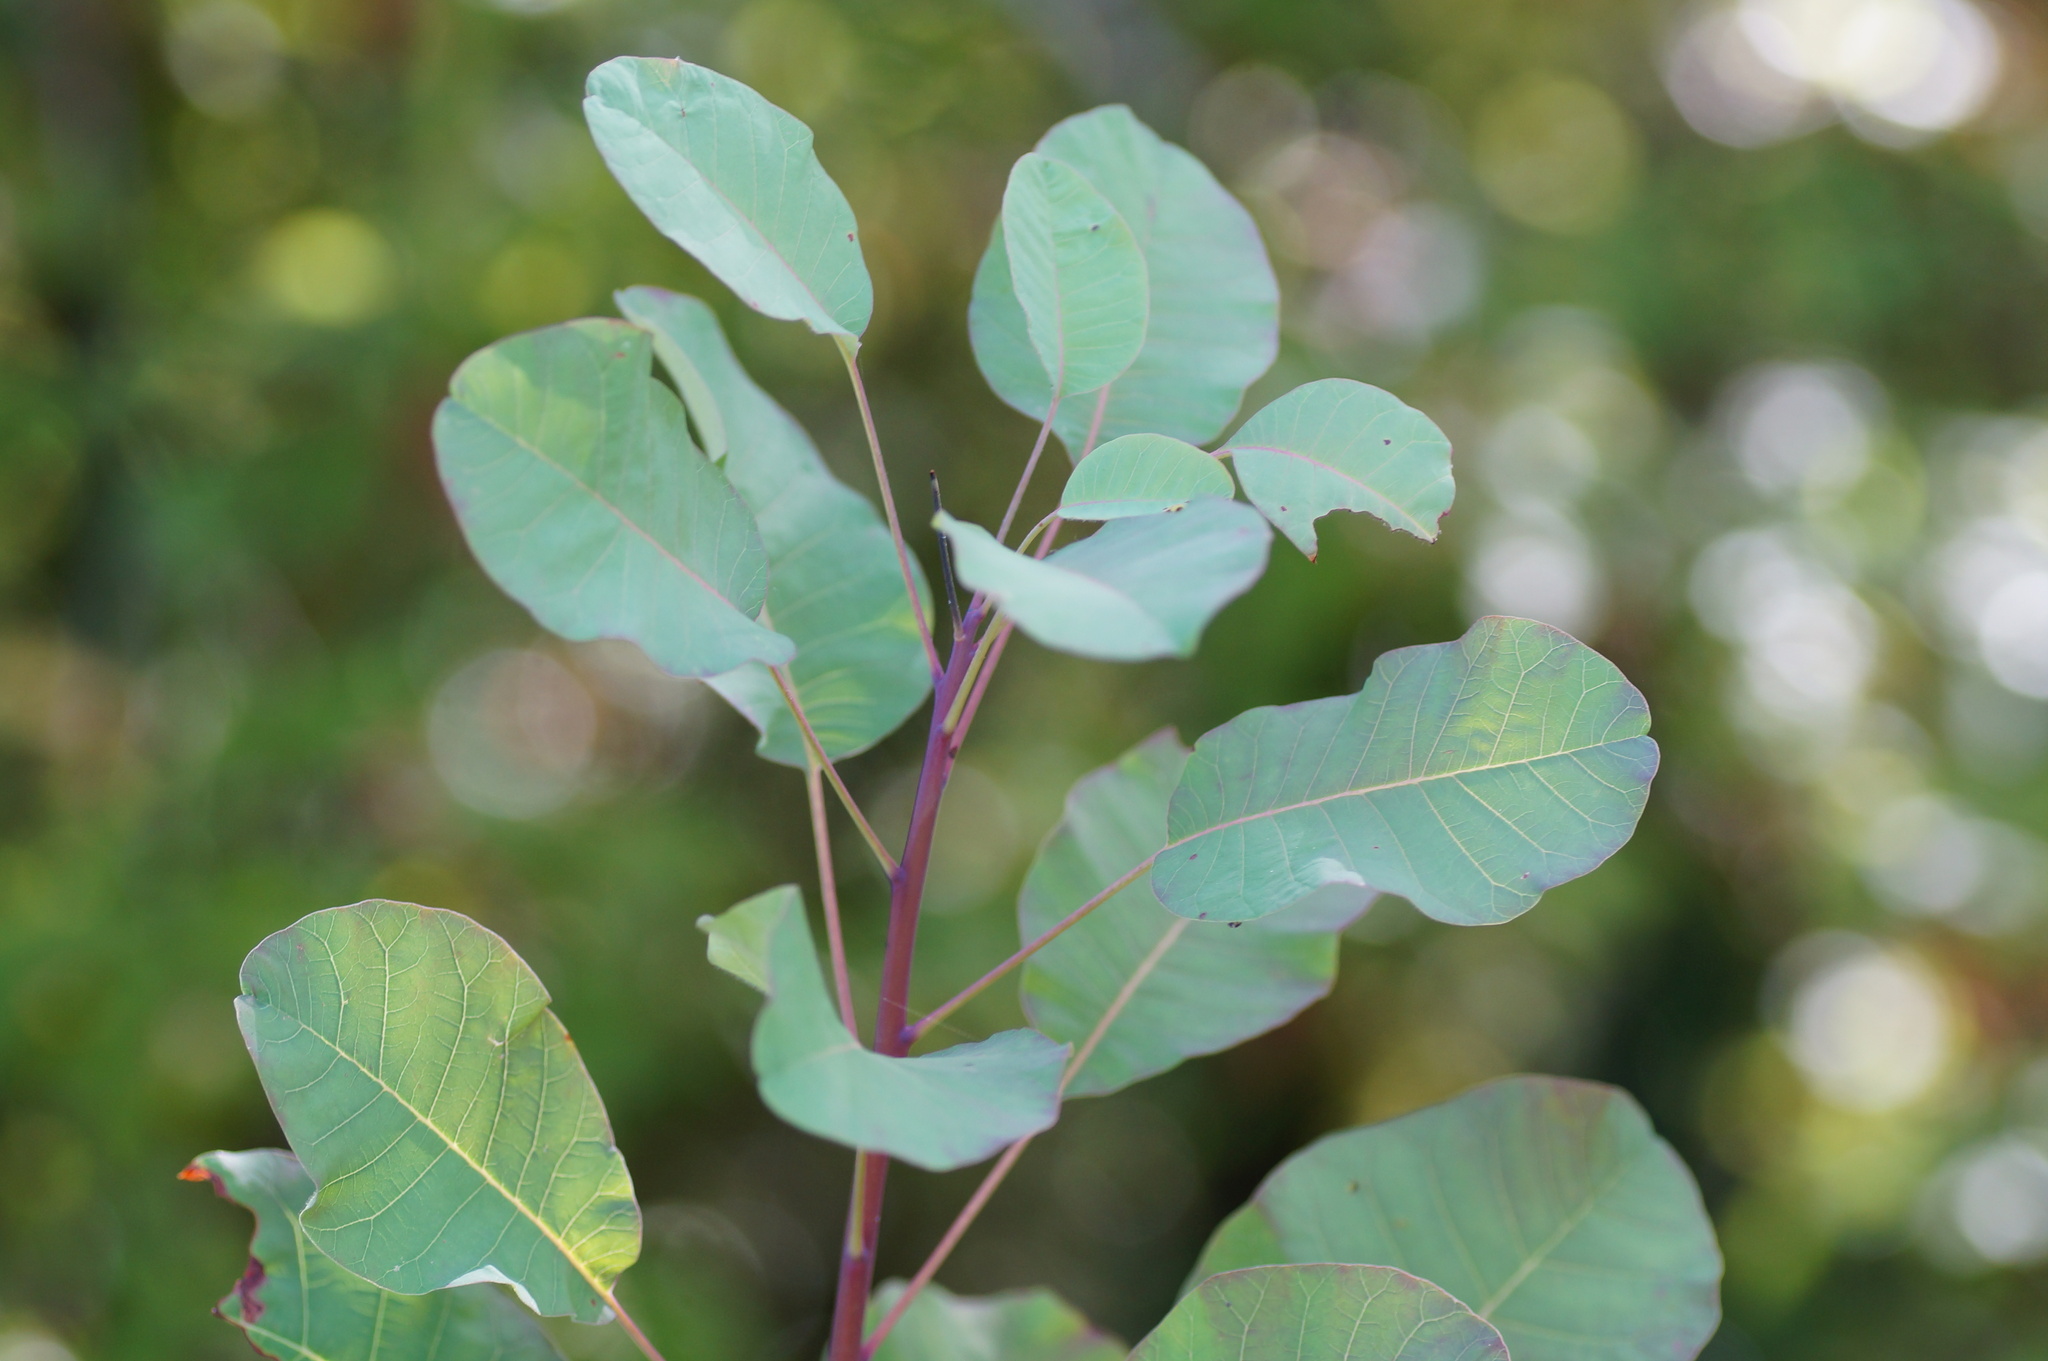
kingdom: Plantae
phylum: Tracheophyta
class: Magnoliopsida
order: Sapindales
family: Anacardiaceae
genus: Cotinus
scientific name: Cotinus coggygria
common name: Smoke-tree
